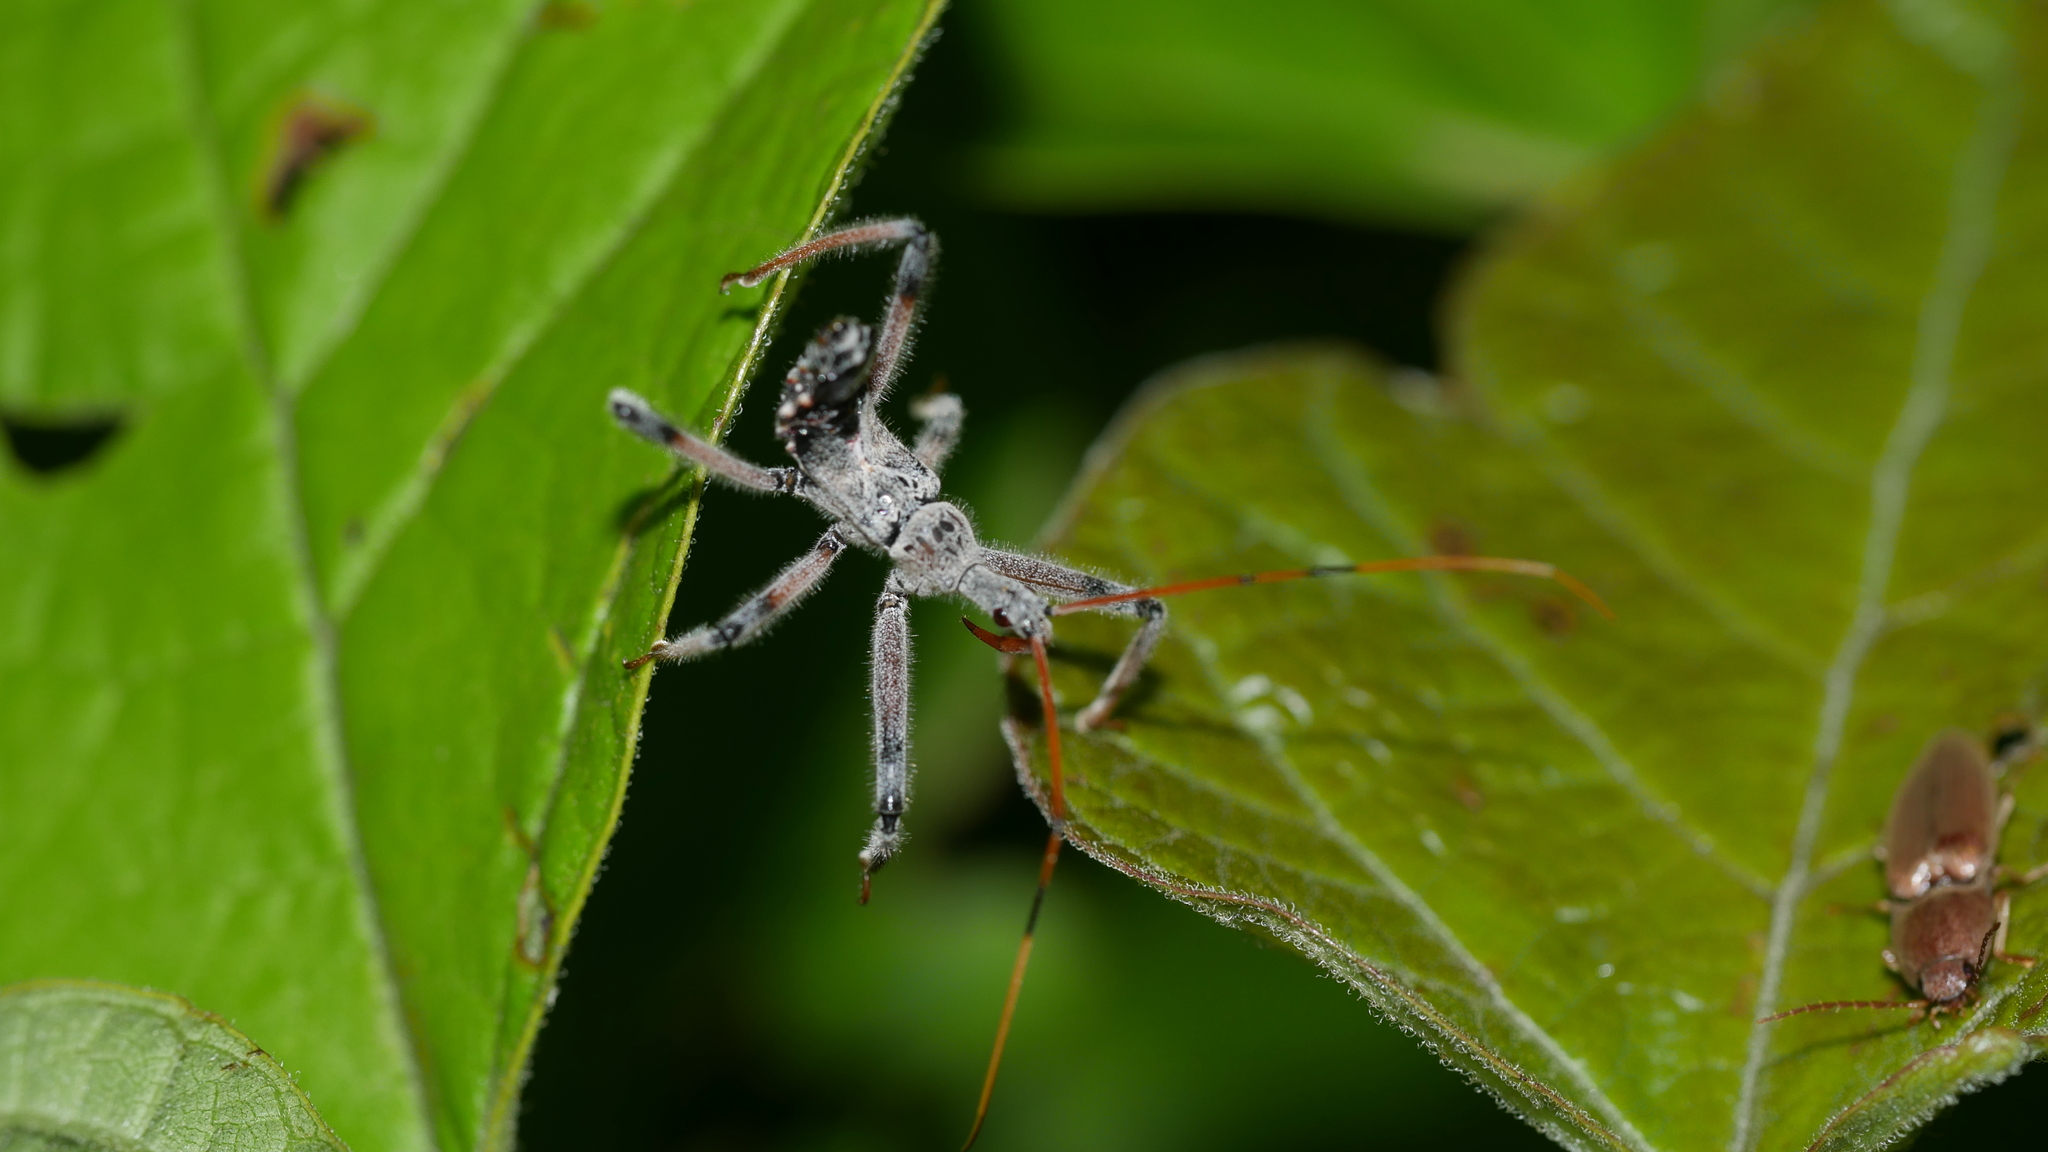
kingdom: Animalia
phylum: Arthropoda
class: Insecta
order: Hemiptera
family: Reduviidae
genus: Arilus
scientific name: Arilus cristatus
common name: North american wheel bug
